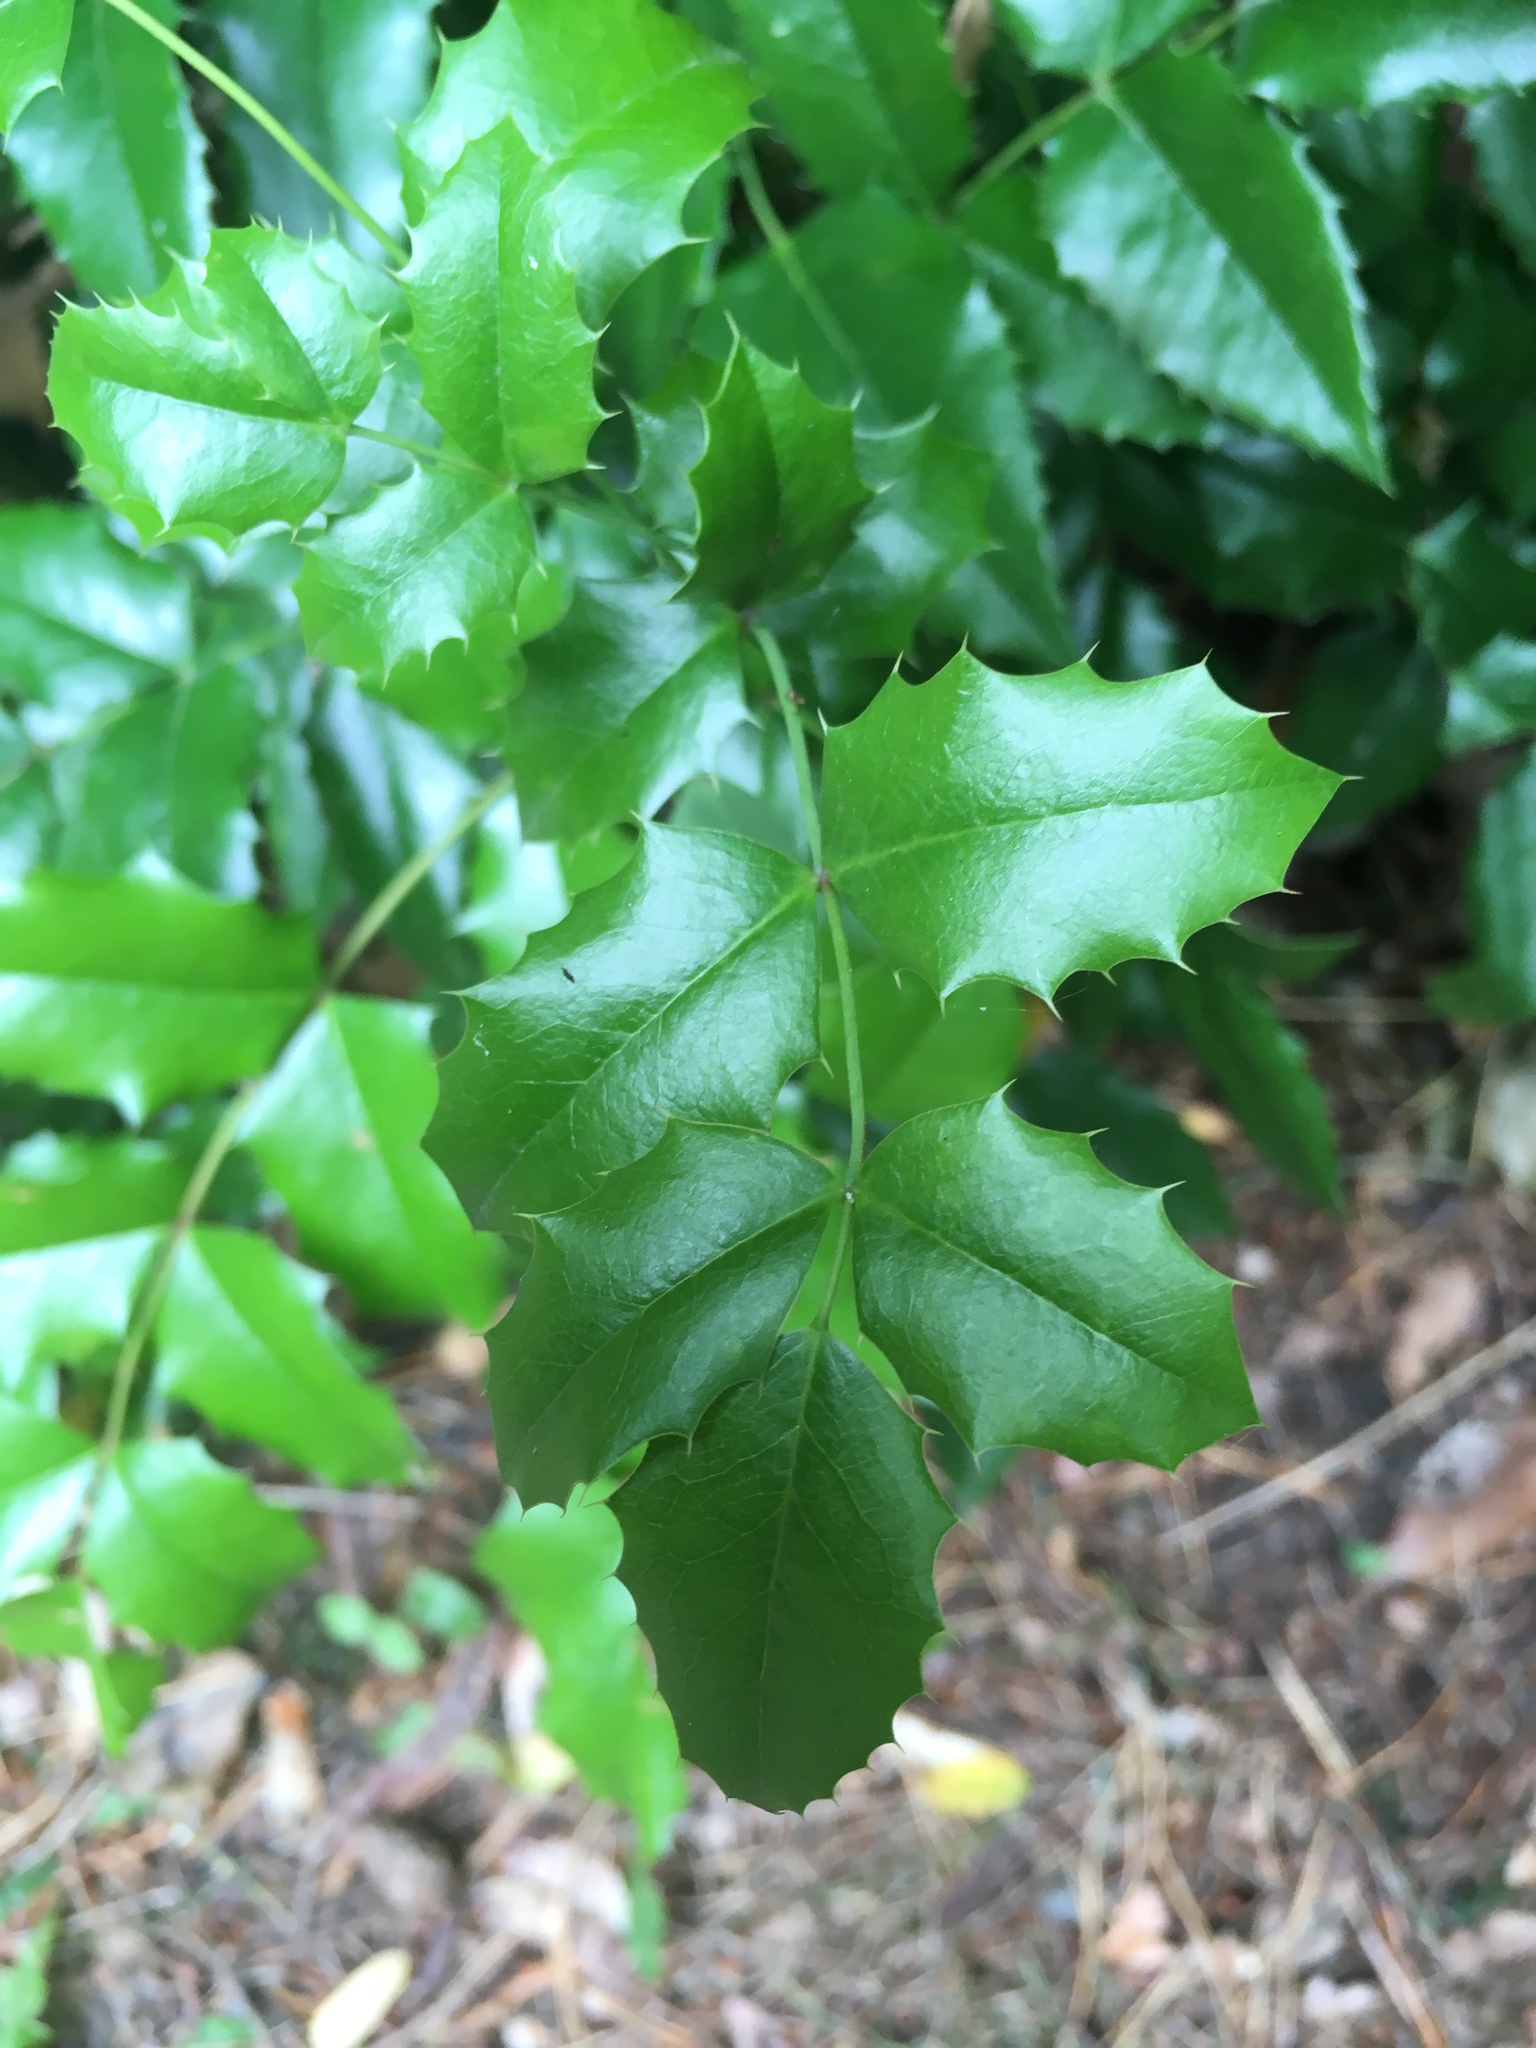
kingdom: Plantae
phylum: Tracheophyta
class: Magnoliopsida
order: Ranunculales
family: Berberidaceae
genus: Mahonia
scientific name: Mahonia aquifolium
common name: Oregon-grape
